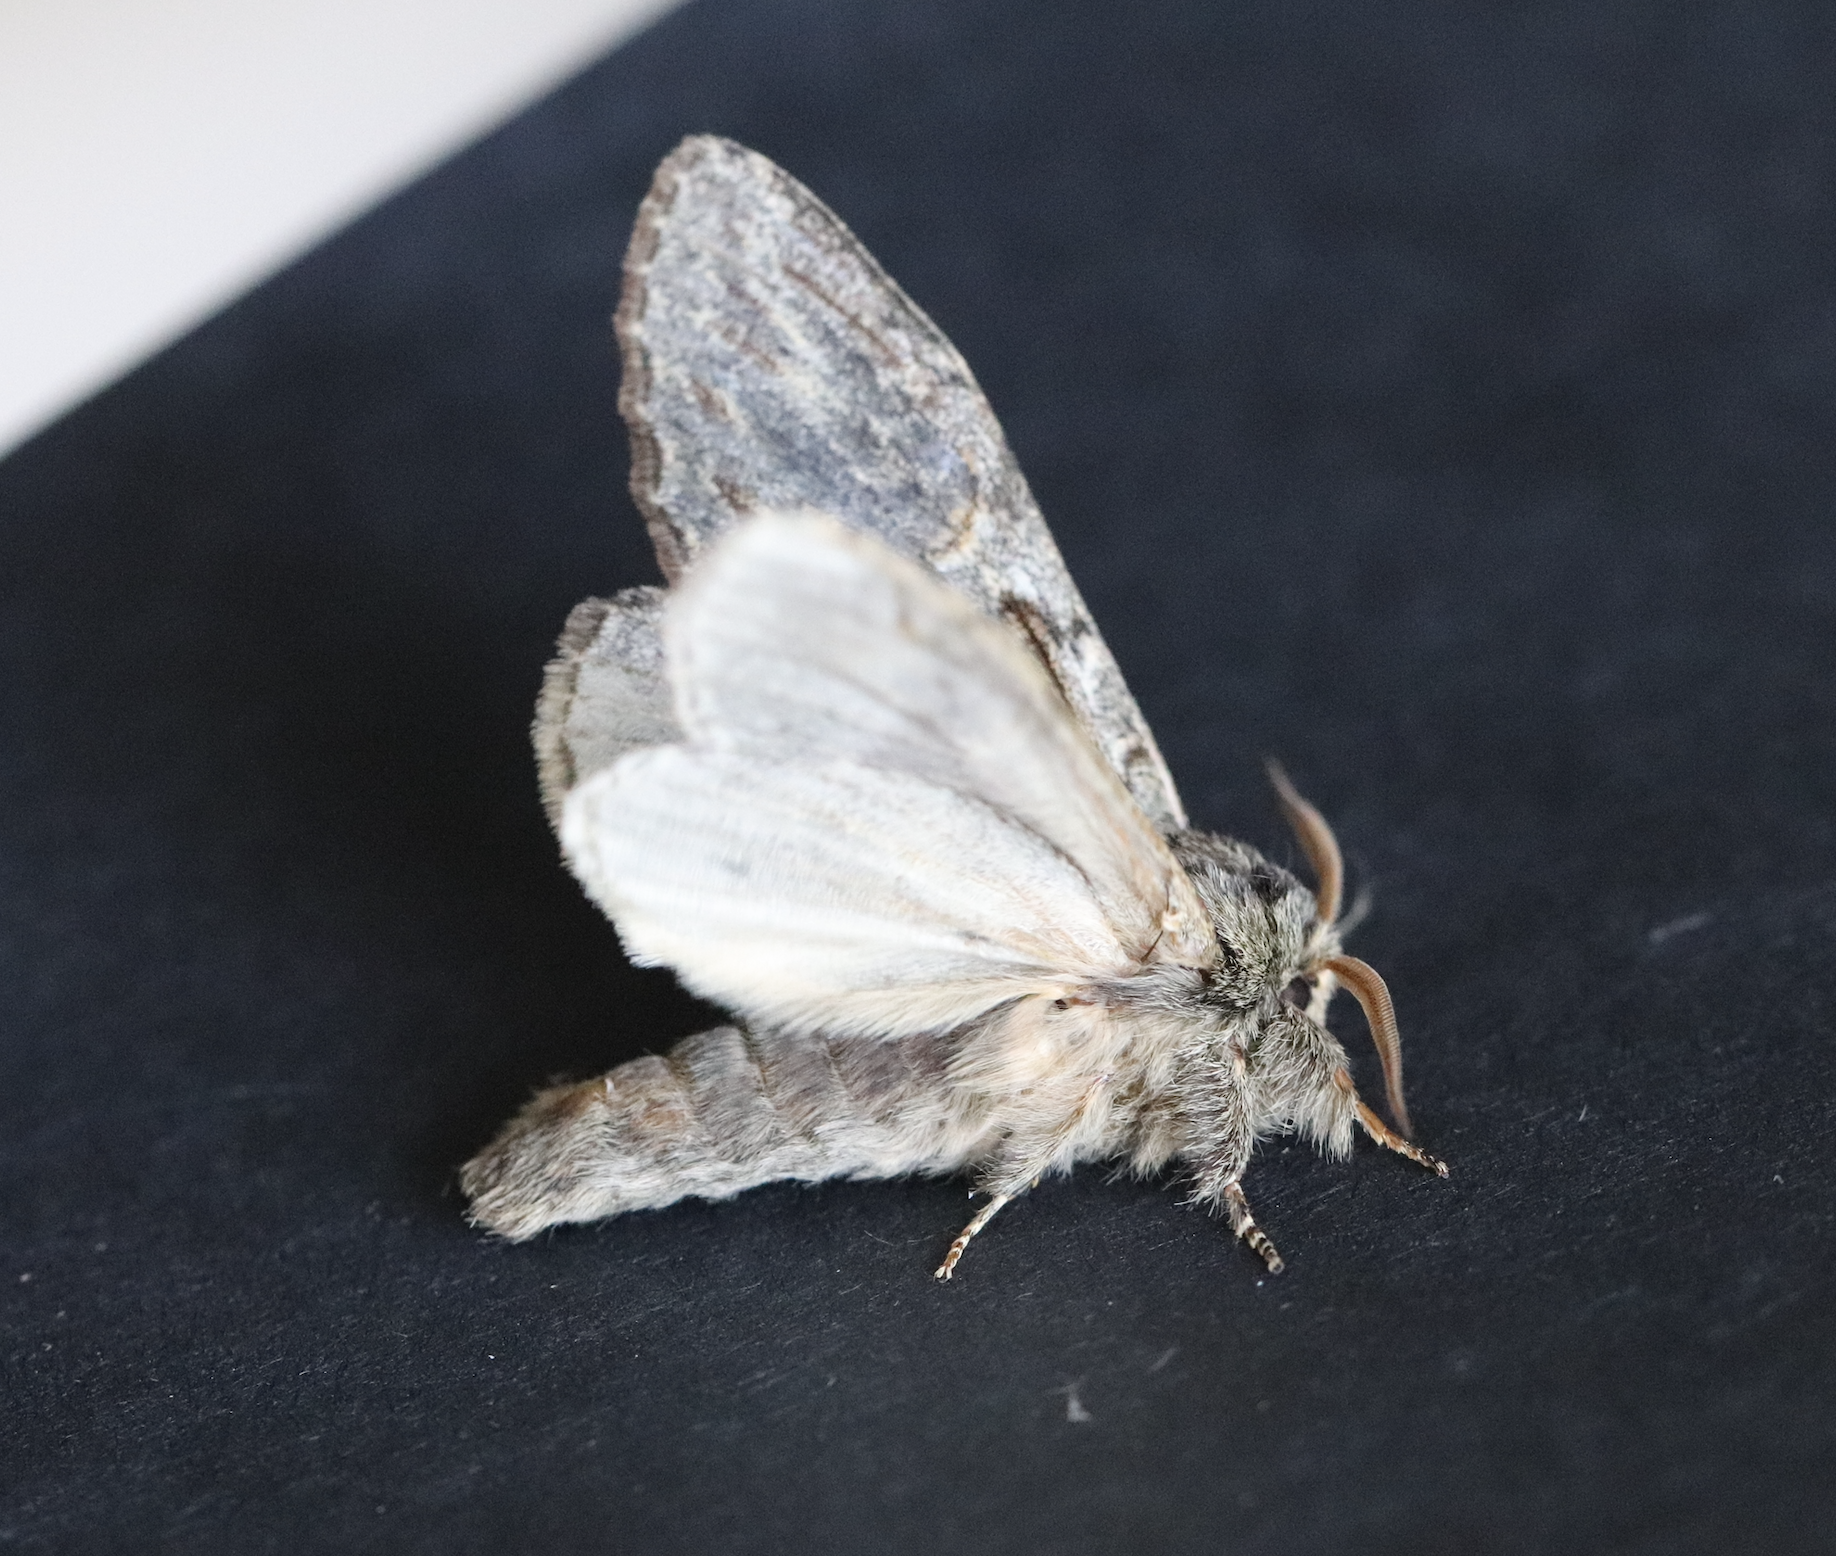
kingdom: Animalia
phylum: Arthropoda
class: Insecta
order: Lepidoptera
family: Notodontidae
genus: Peridea
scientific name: Peridea anceps
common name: Great prominent
